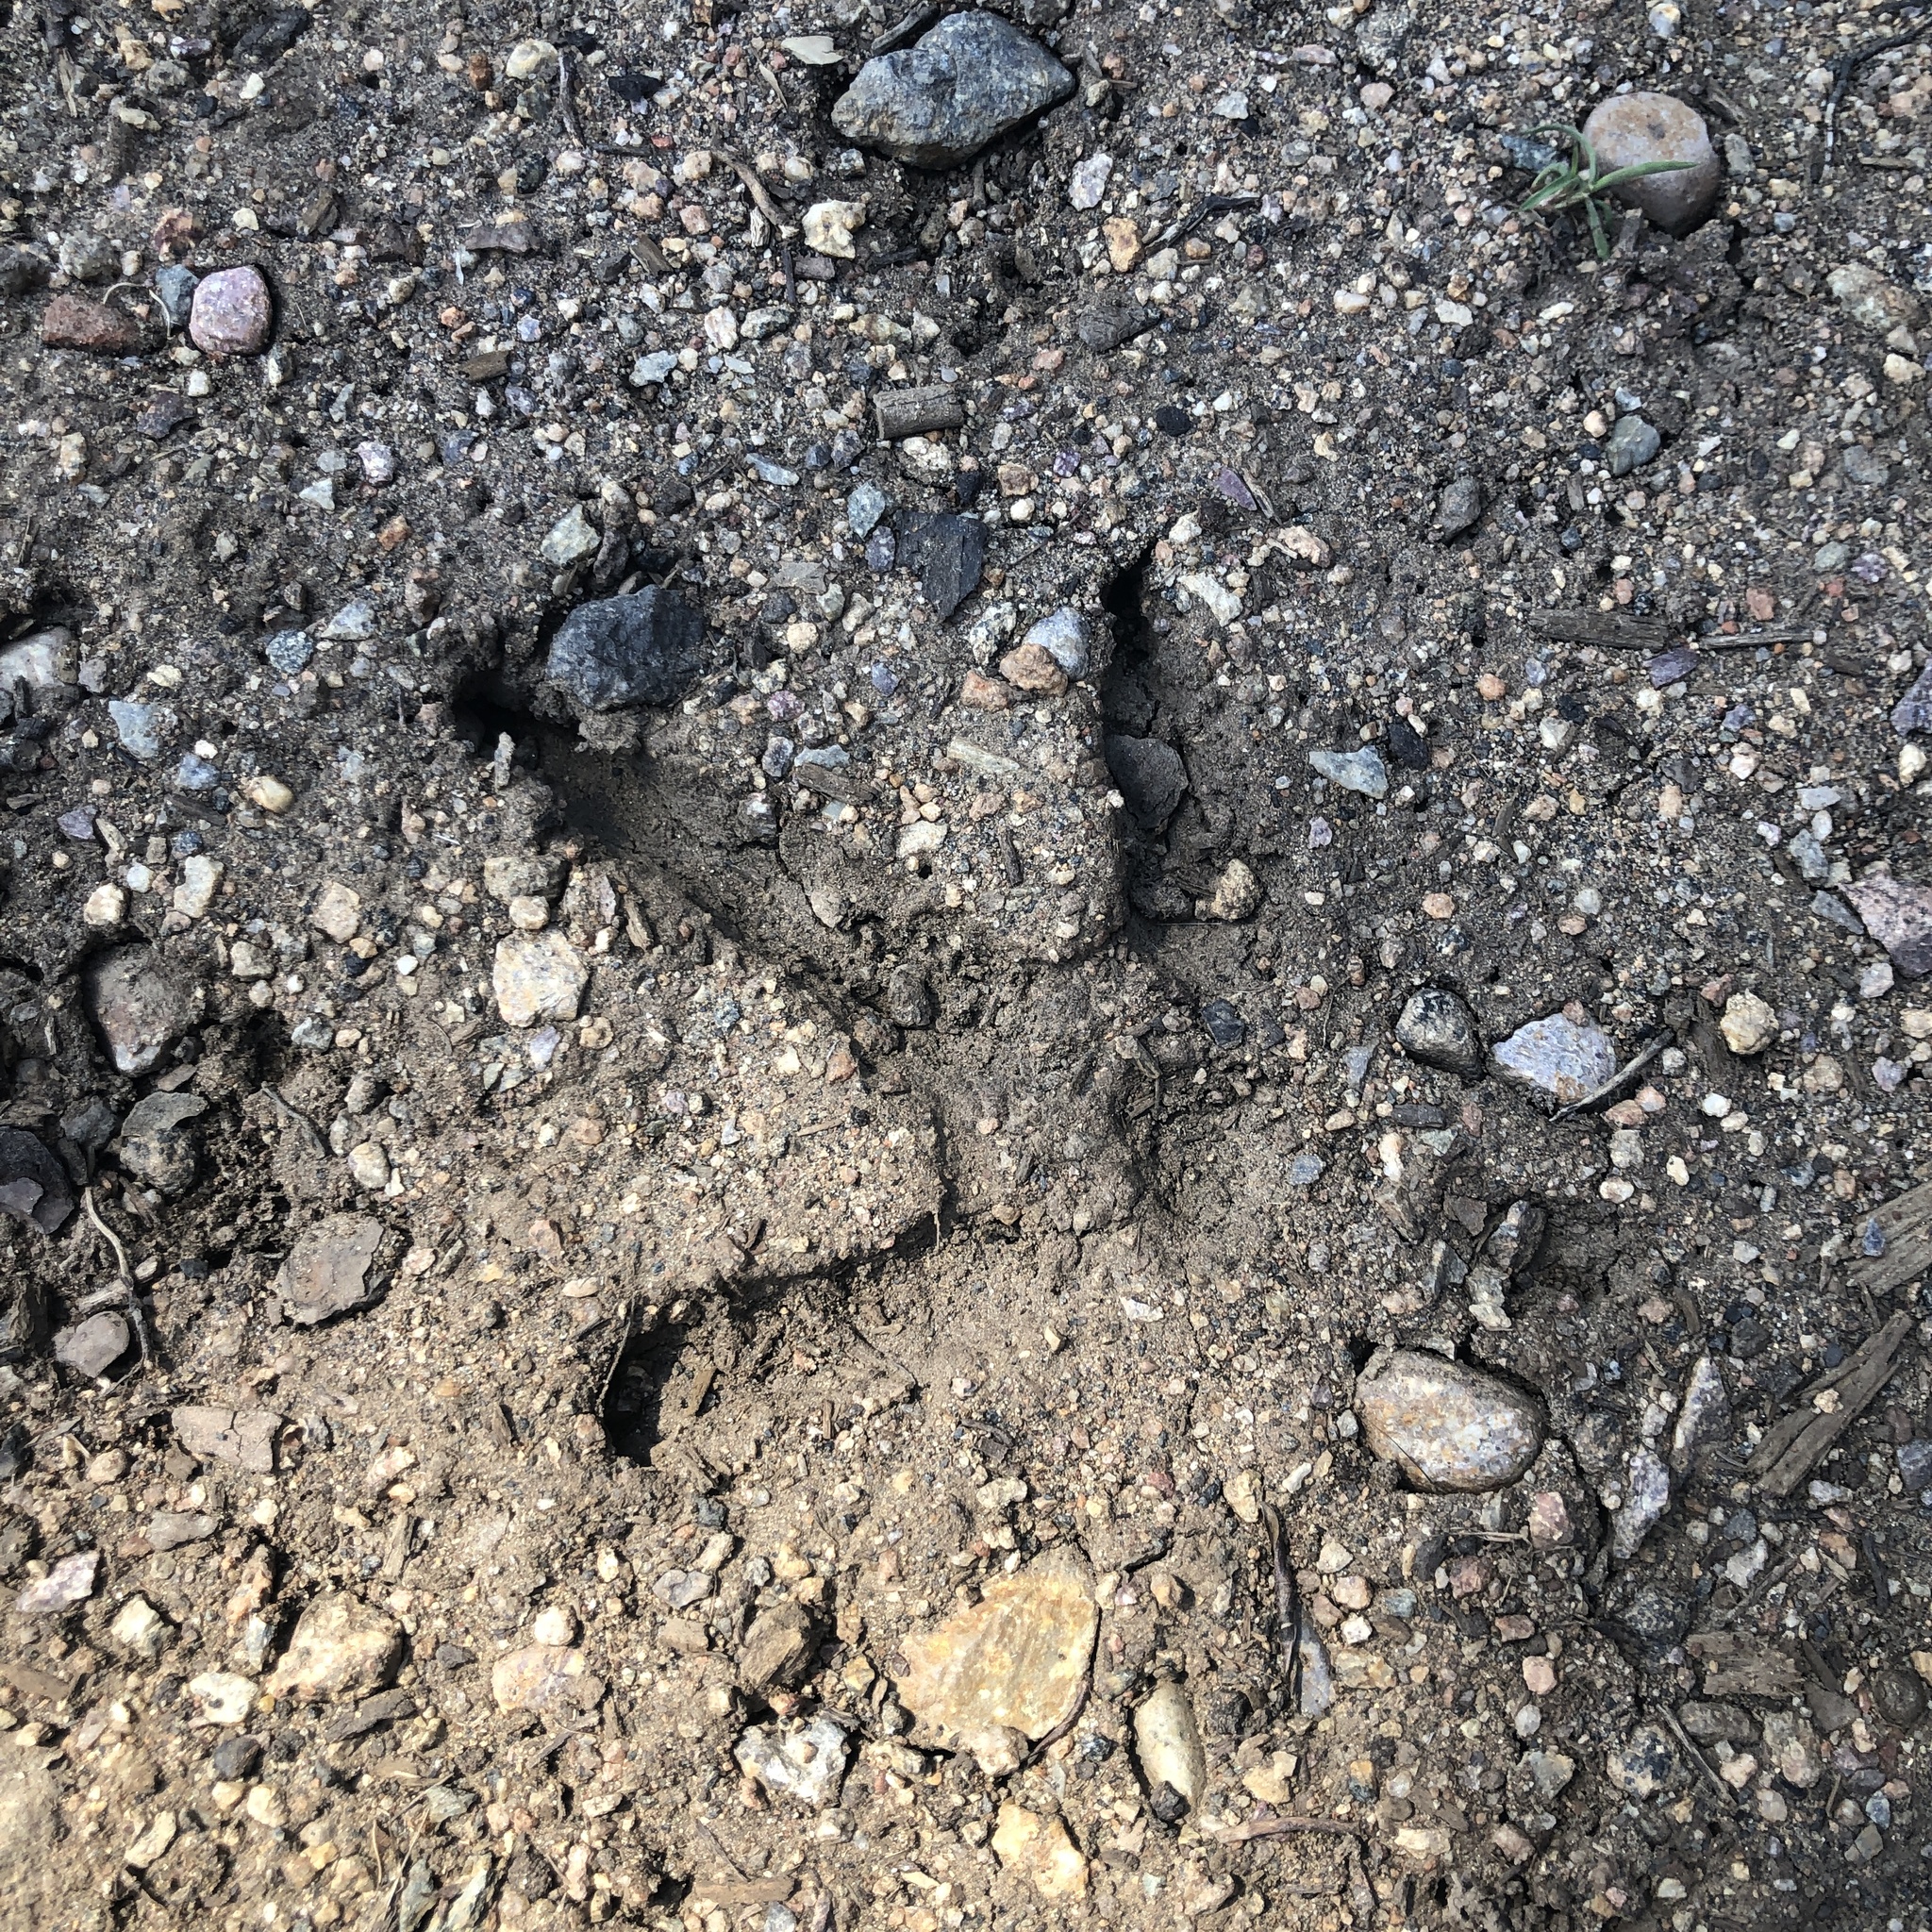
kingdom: Animalia
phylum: Chordata
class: Aves
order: Galliformes
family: Phasianidae
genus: Meleagris
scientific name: Meleagris gallopavo
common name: Wild turkey
